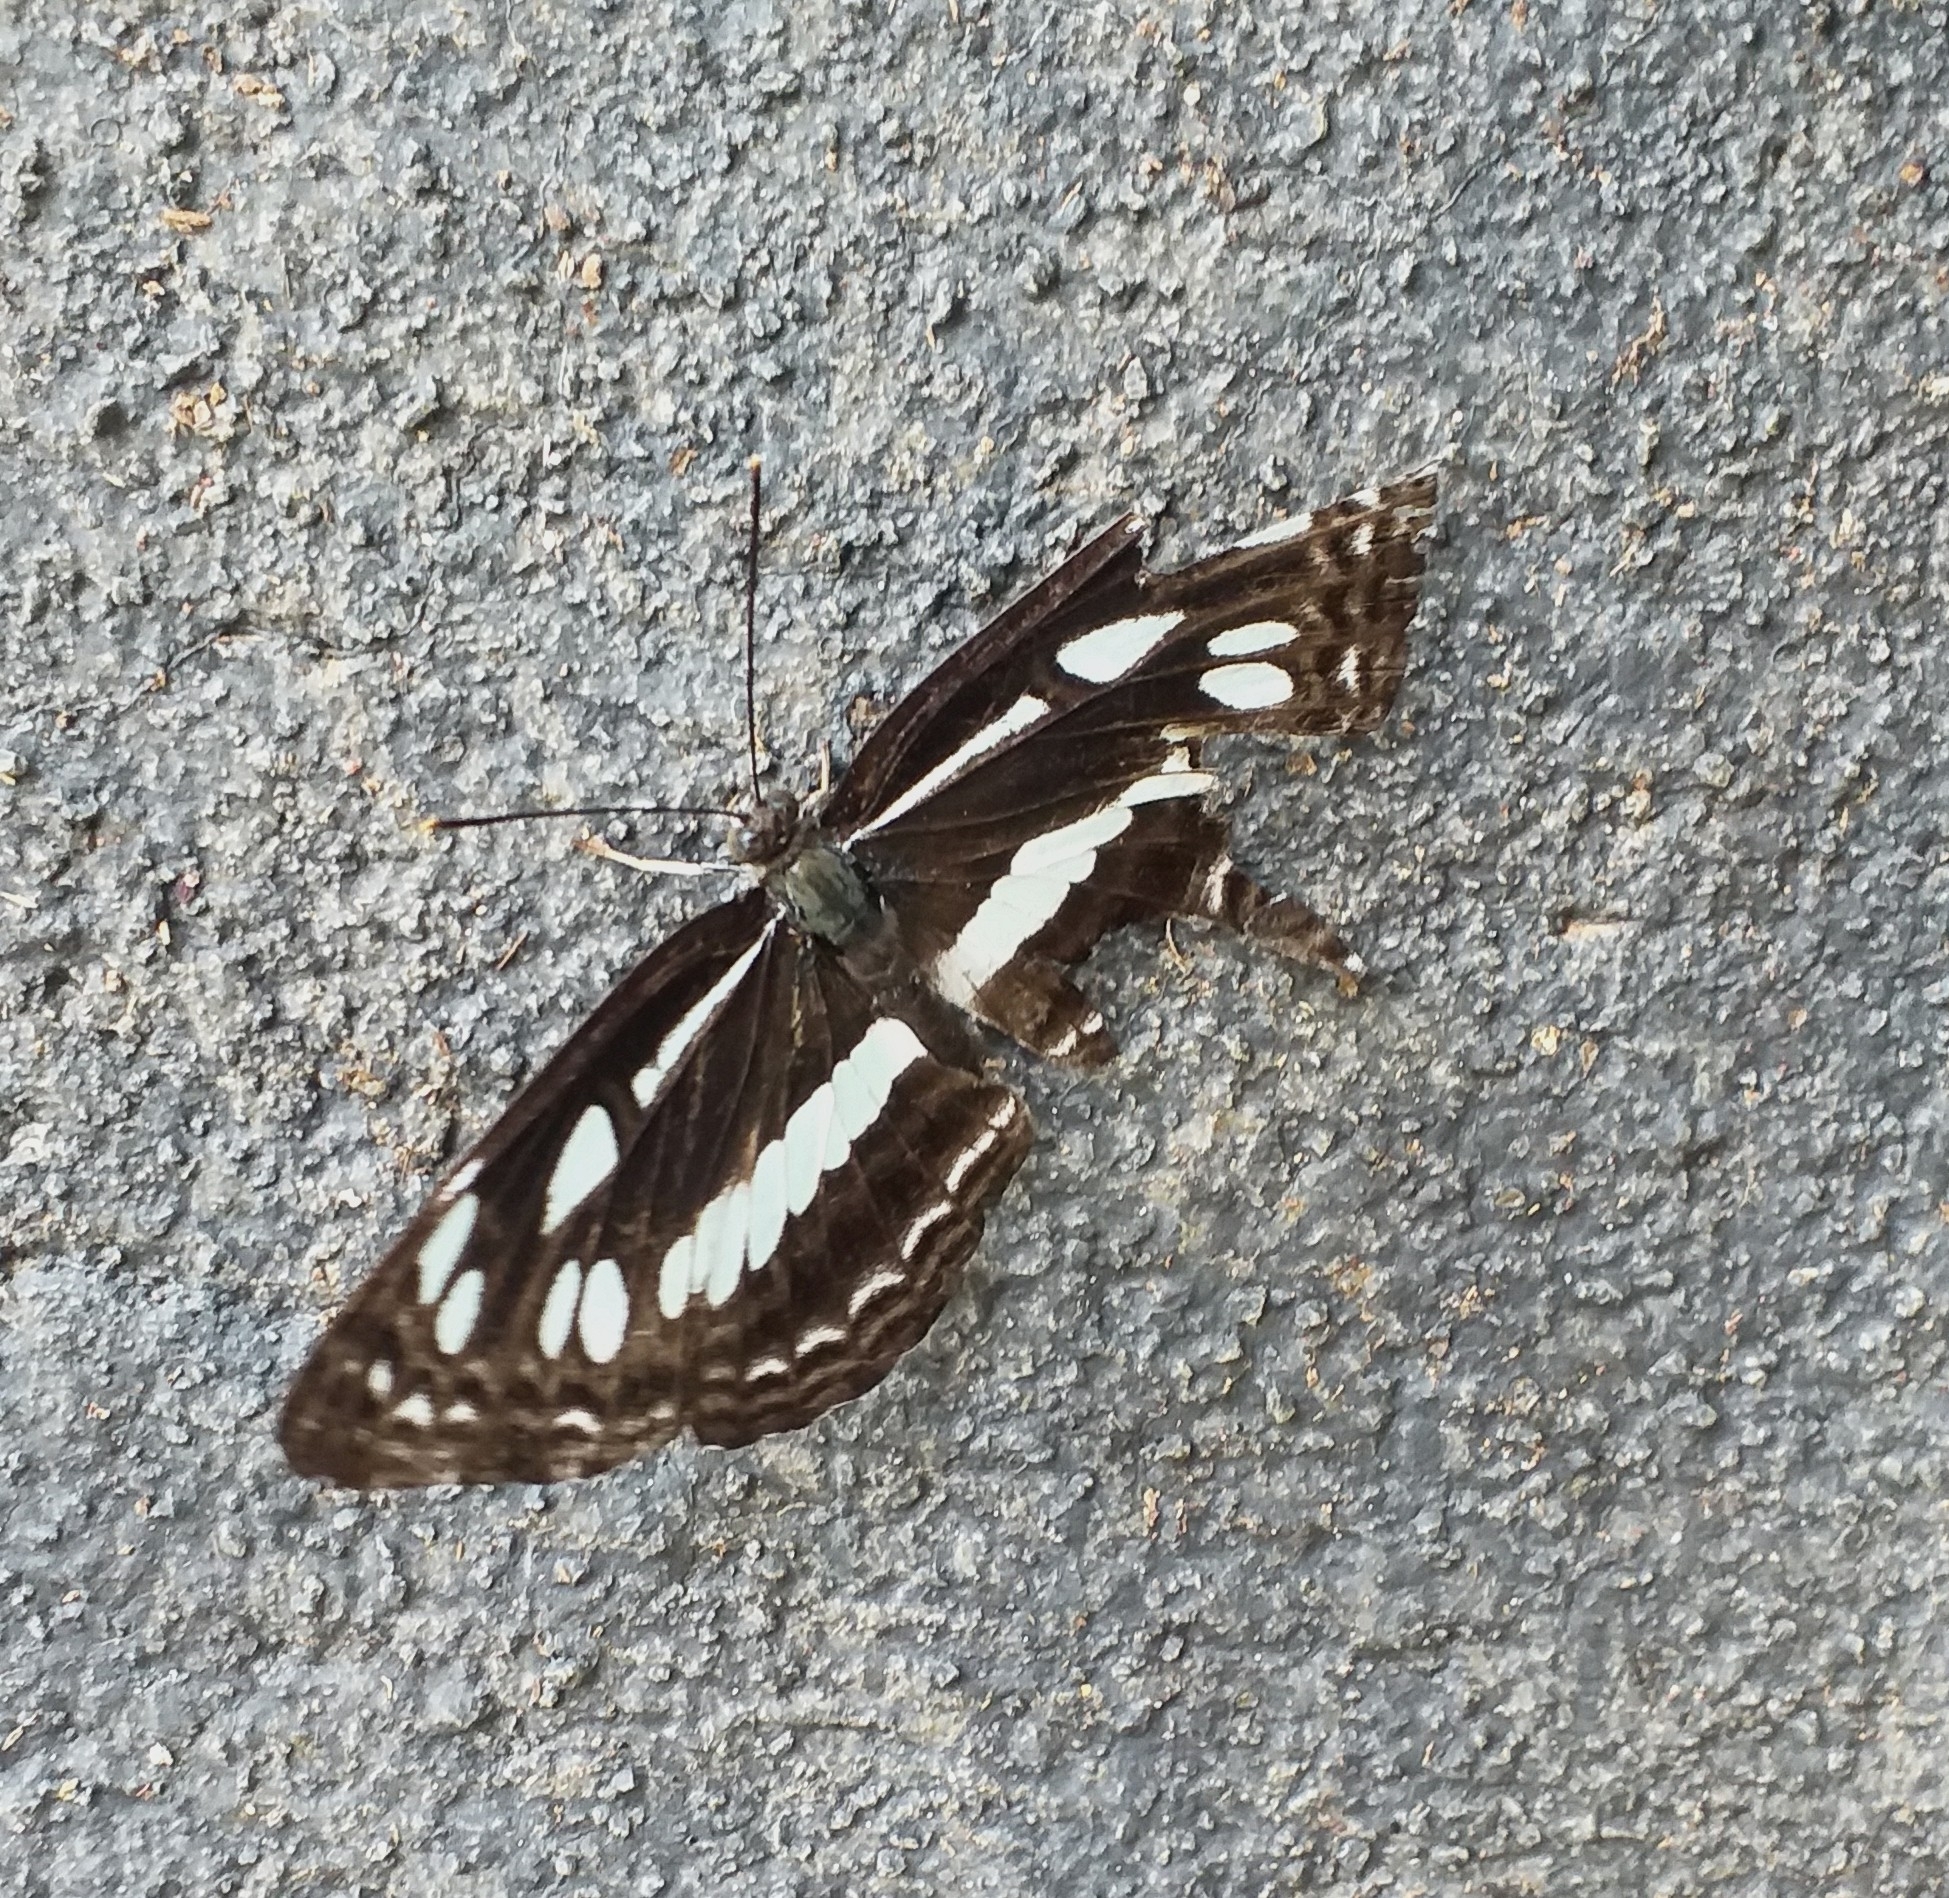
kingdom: Animalia
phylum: Arthropoda
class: Insecta
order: Lepidoptera
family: Nymphalidae
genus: Neptis
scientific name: Neptis jumbah
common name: Chestnut-streaked sailer
